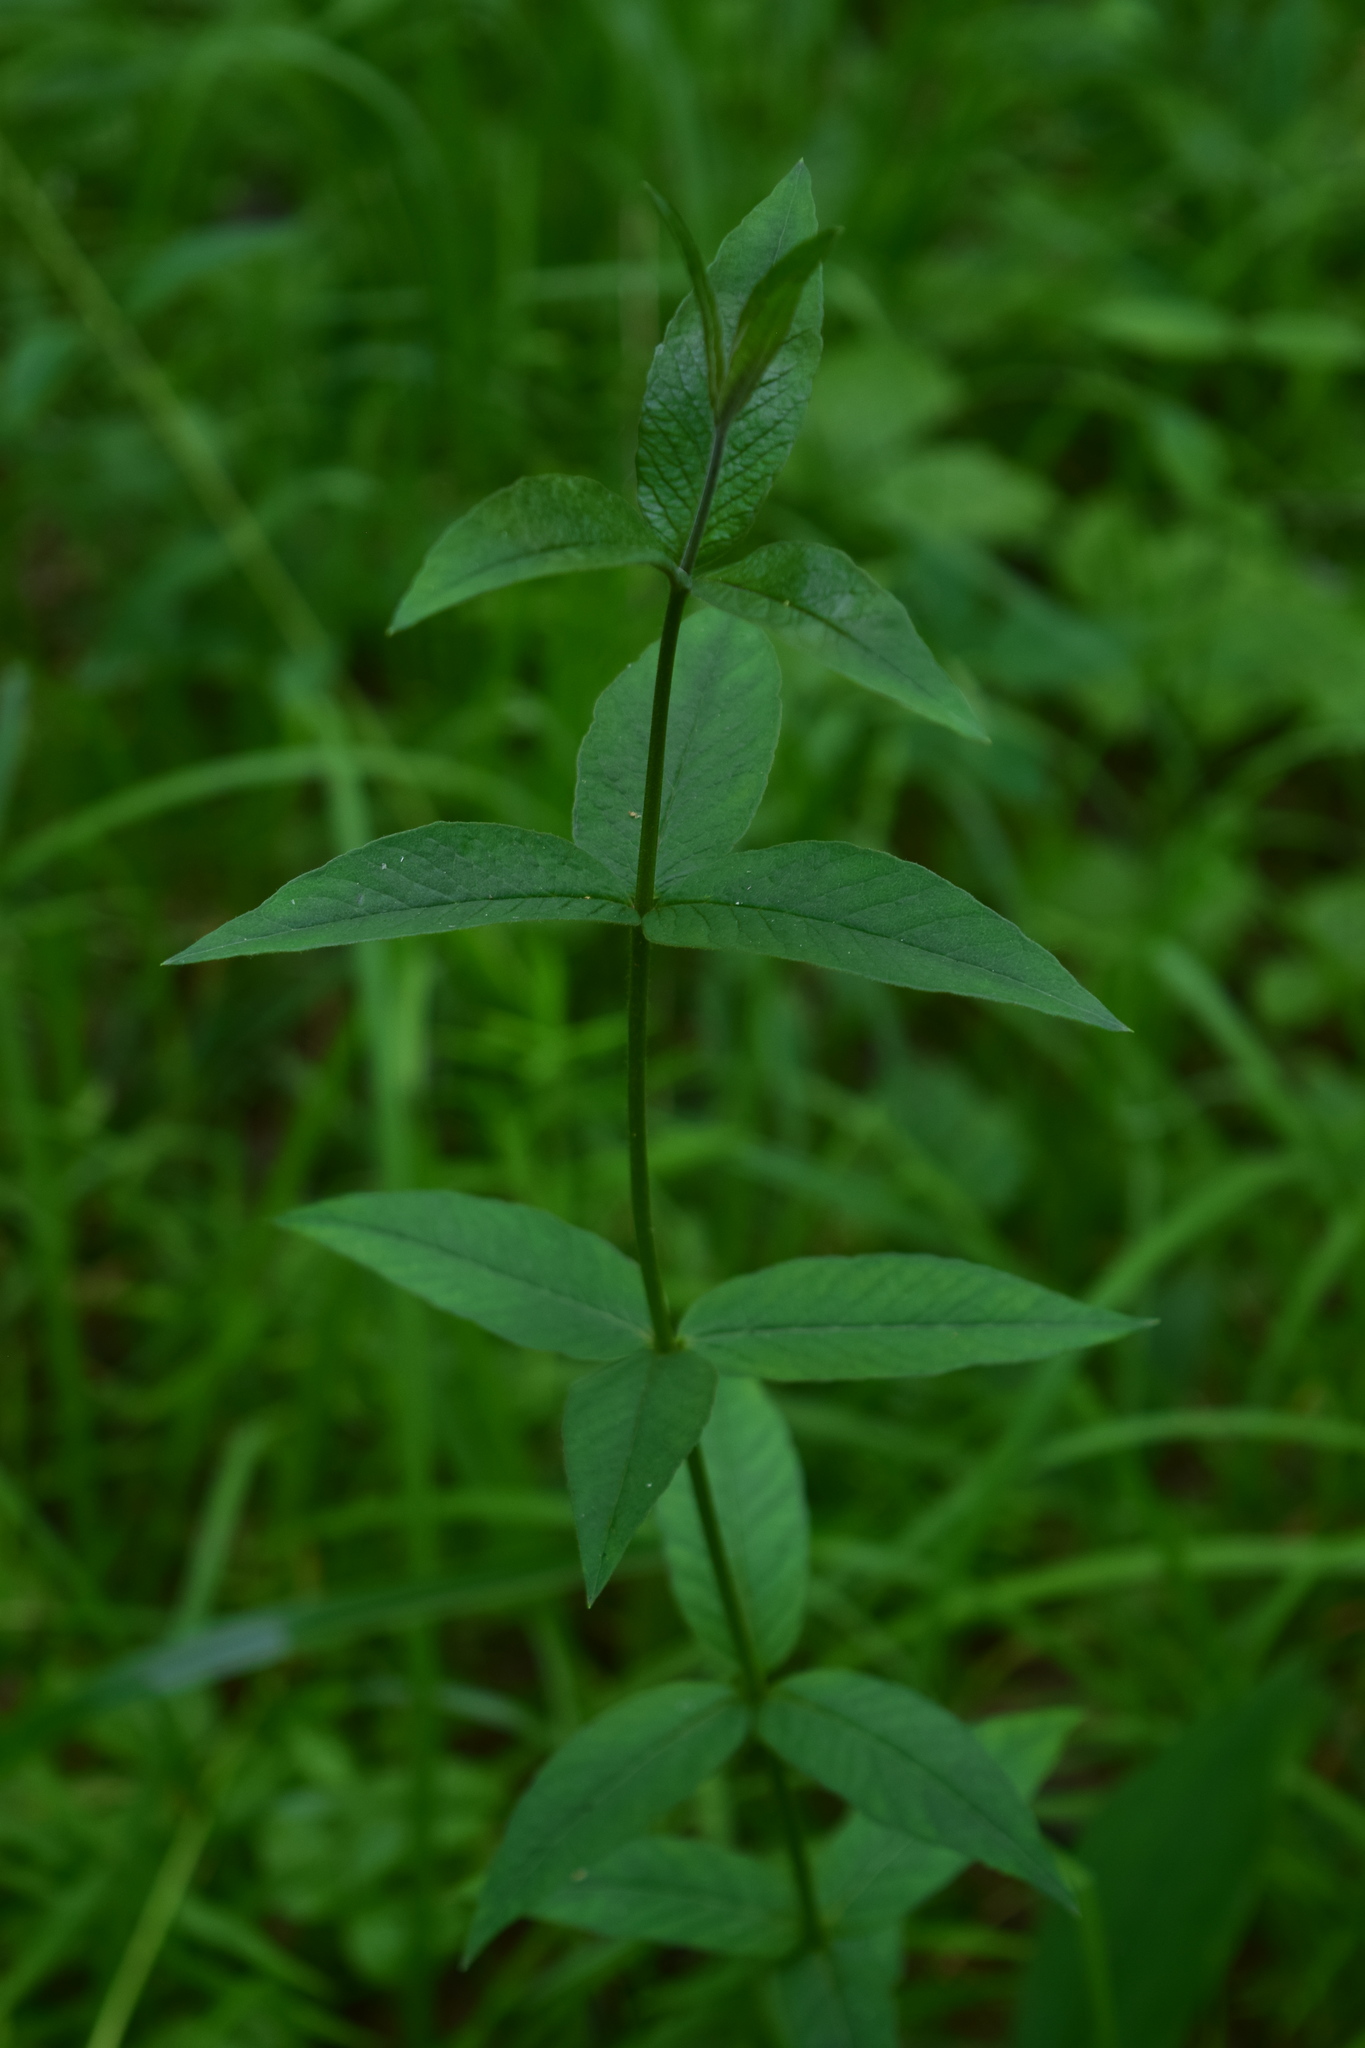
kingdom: Plantae
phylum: Tracheophyta
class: Magnoliopsida
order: Ericales
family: Primulaceae
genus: Lysimachia
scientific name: Lysimachia vulgaris
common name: Yellow loosestrife
